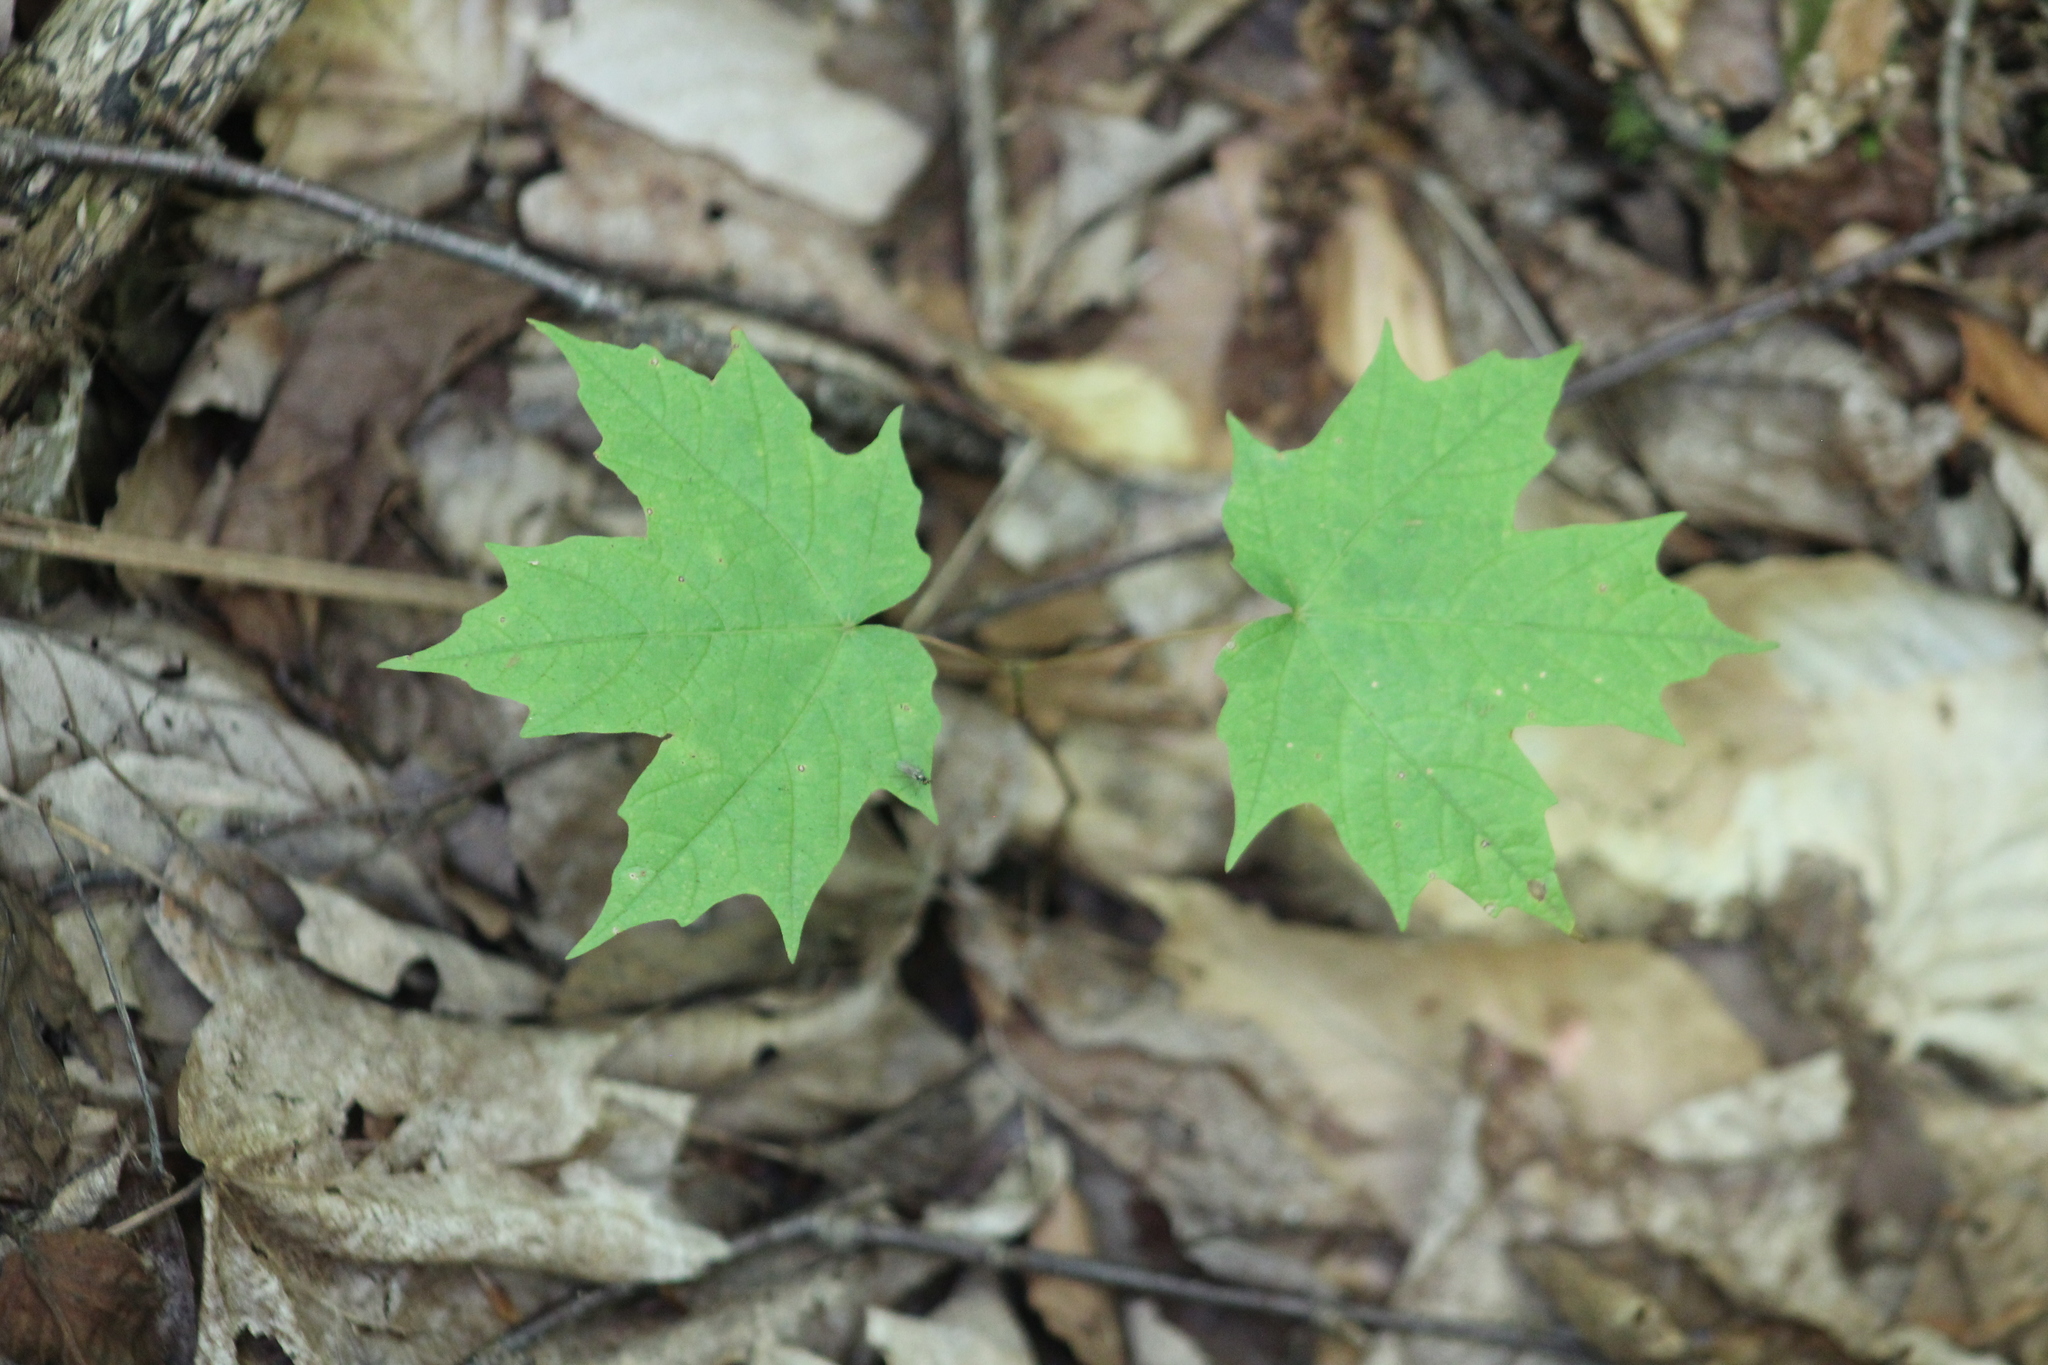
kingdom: Plantae
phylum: Tracheophyta
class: Magnoliopsida
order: Sapindales
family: Sapindaceae
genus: Acer
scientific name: Acer saccharum
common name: Sugar maple
